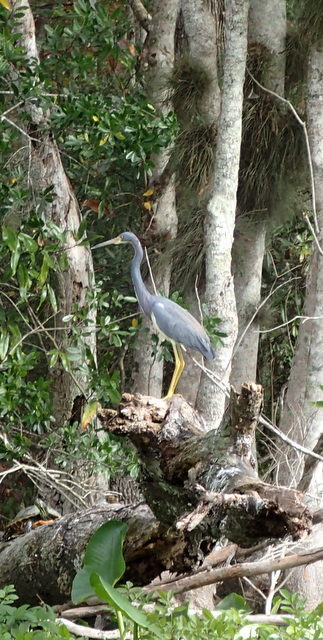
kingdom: Animalia
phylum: Chordata
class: Aves
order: Pelecaniformes
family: Ardeidae
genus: Egretta
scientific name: Egretta tricolor
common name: Tricolored heron
